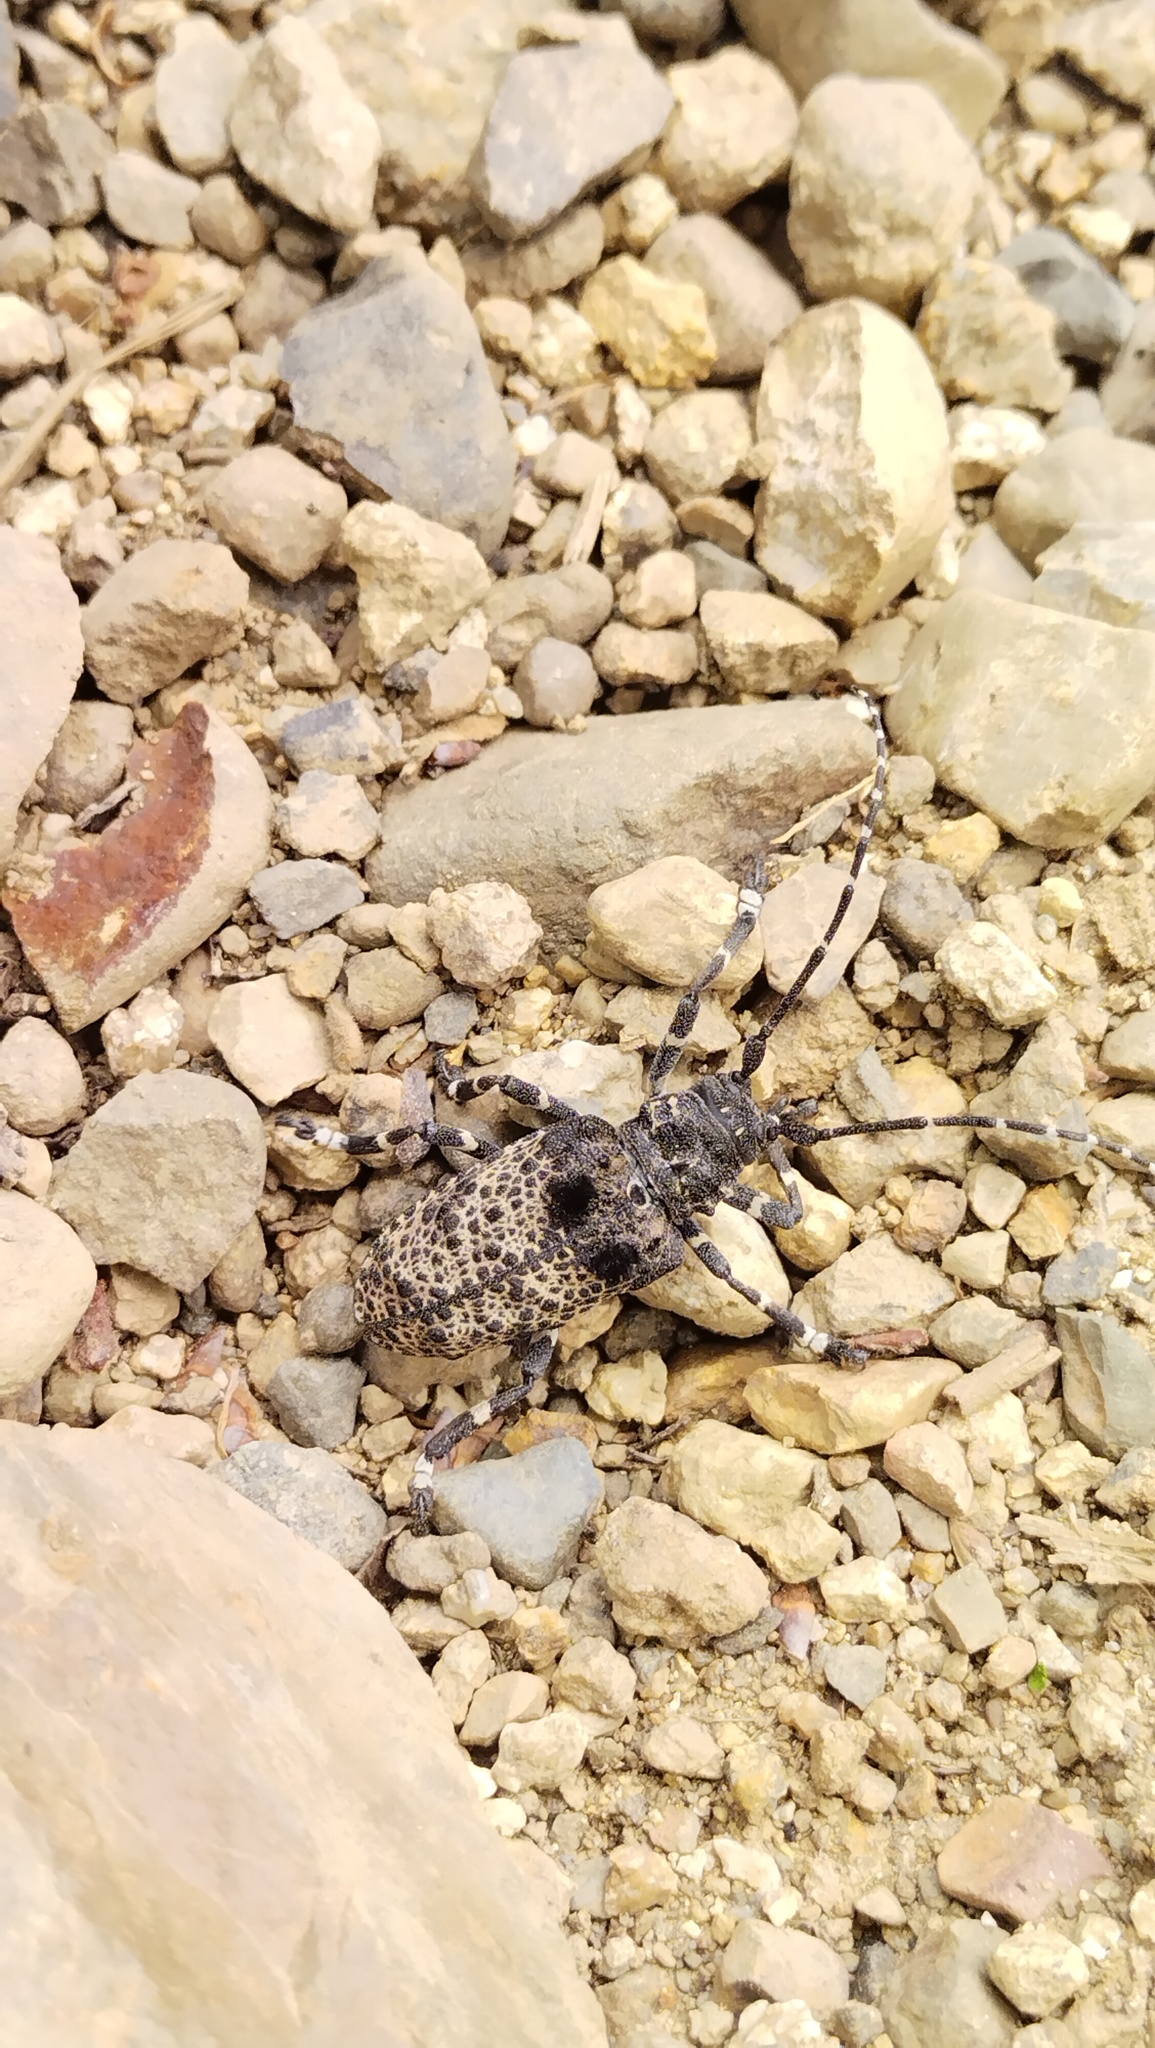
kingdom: Animalia
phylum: Arthropoda
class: Insecta
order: Coleoptera
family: Cerambycidae
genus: Moechotypa
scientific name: Moechotypa diphysis
